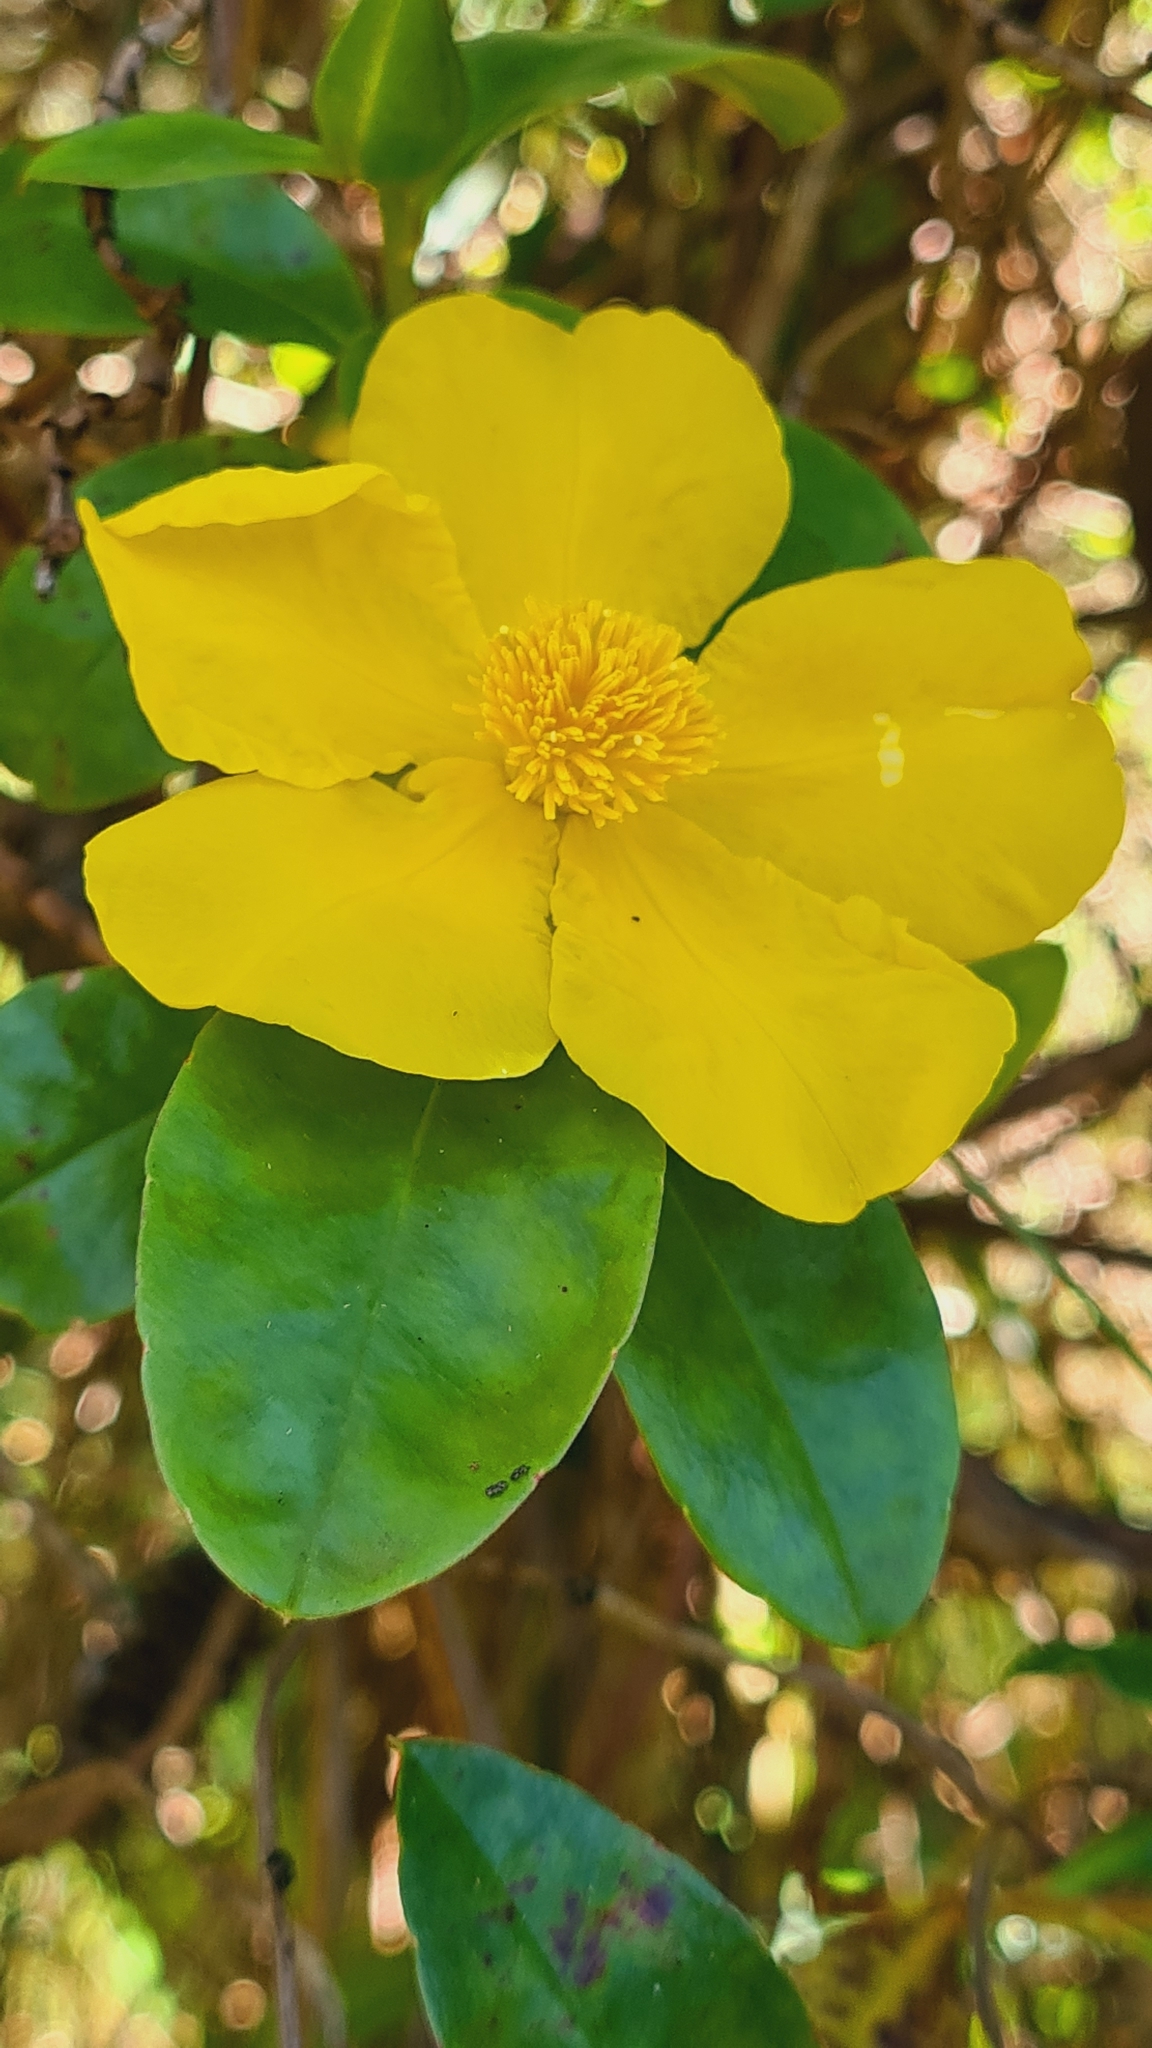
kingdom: Plantae
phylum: Tracheophyta
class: Magnoliopsida
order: Dilleniales
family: Dilleniaceae
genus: Hibbertia
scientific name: Hibbertia scandens
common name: Climbing guinea-flower
